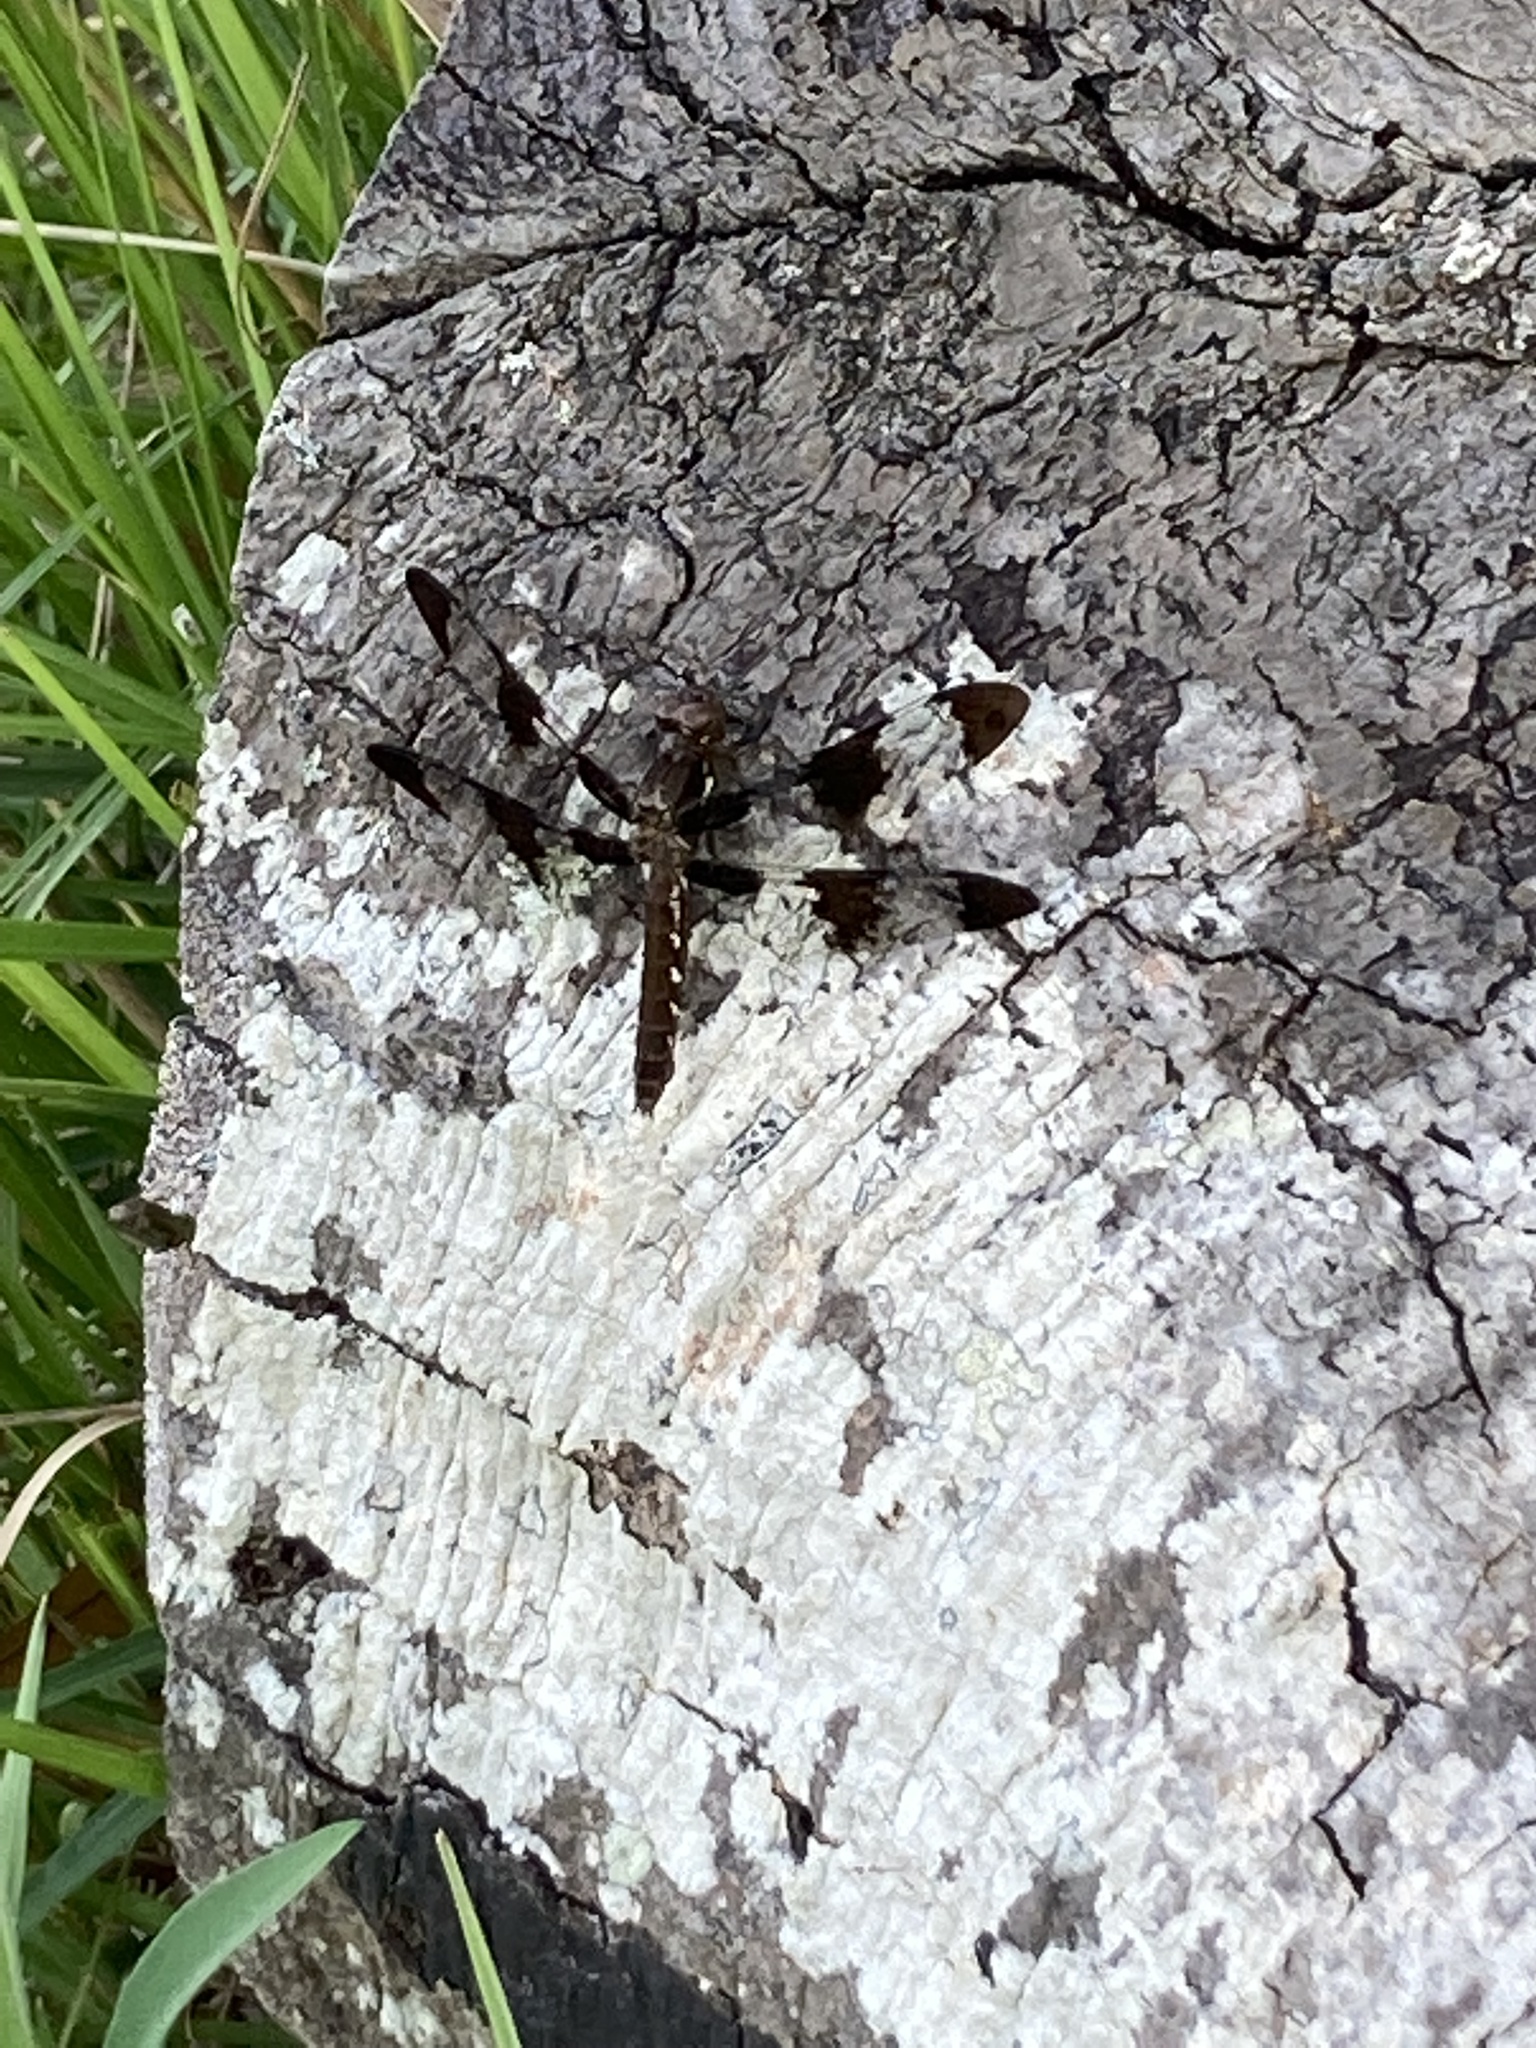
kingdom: Animalia
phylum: Arthropoda
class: Insecta
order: Odonata
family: Libellulidae
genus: Plathemis
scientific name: Plathemis lydia
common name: Common whitetail
